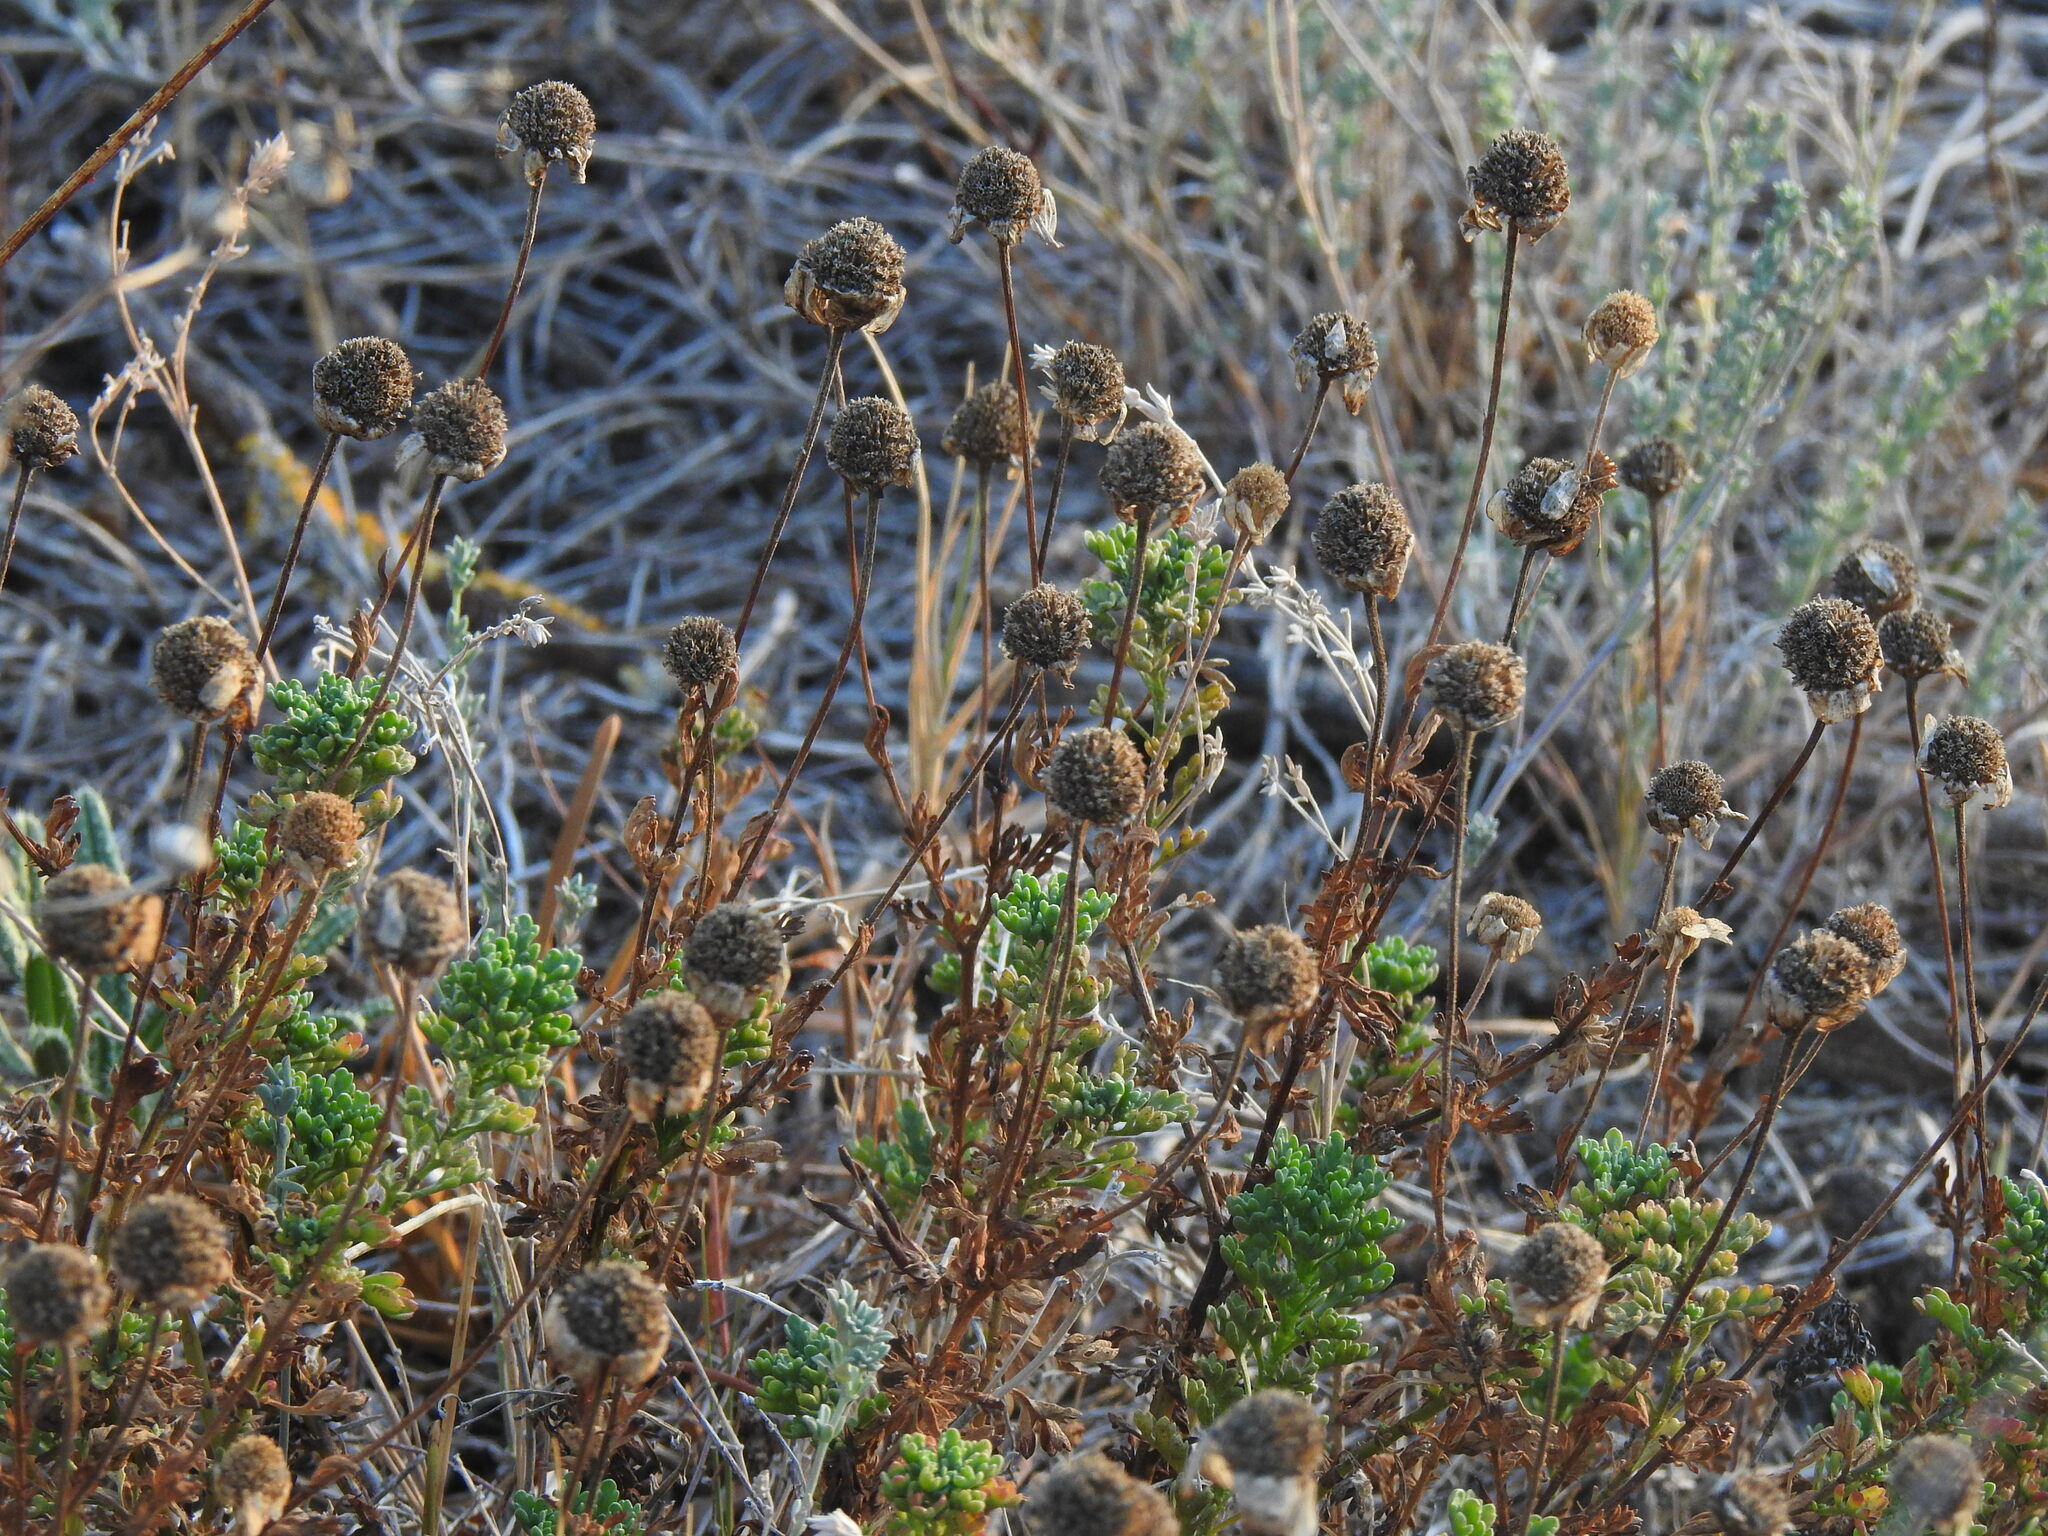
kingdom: Plantae
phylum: Tracheophyta
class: Magnoliopsida
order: Asterales
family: Asteraceae
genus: Anthemis
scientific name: Anthemis maritima
